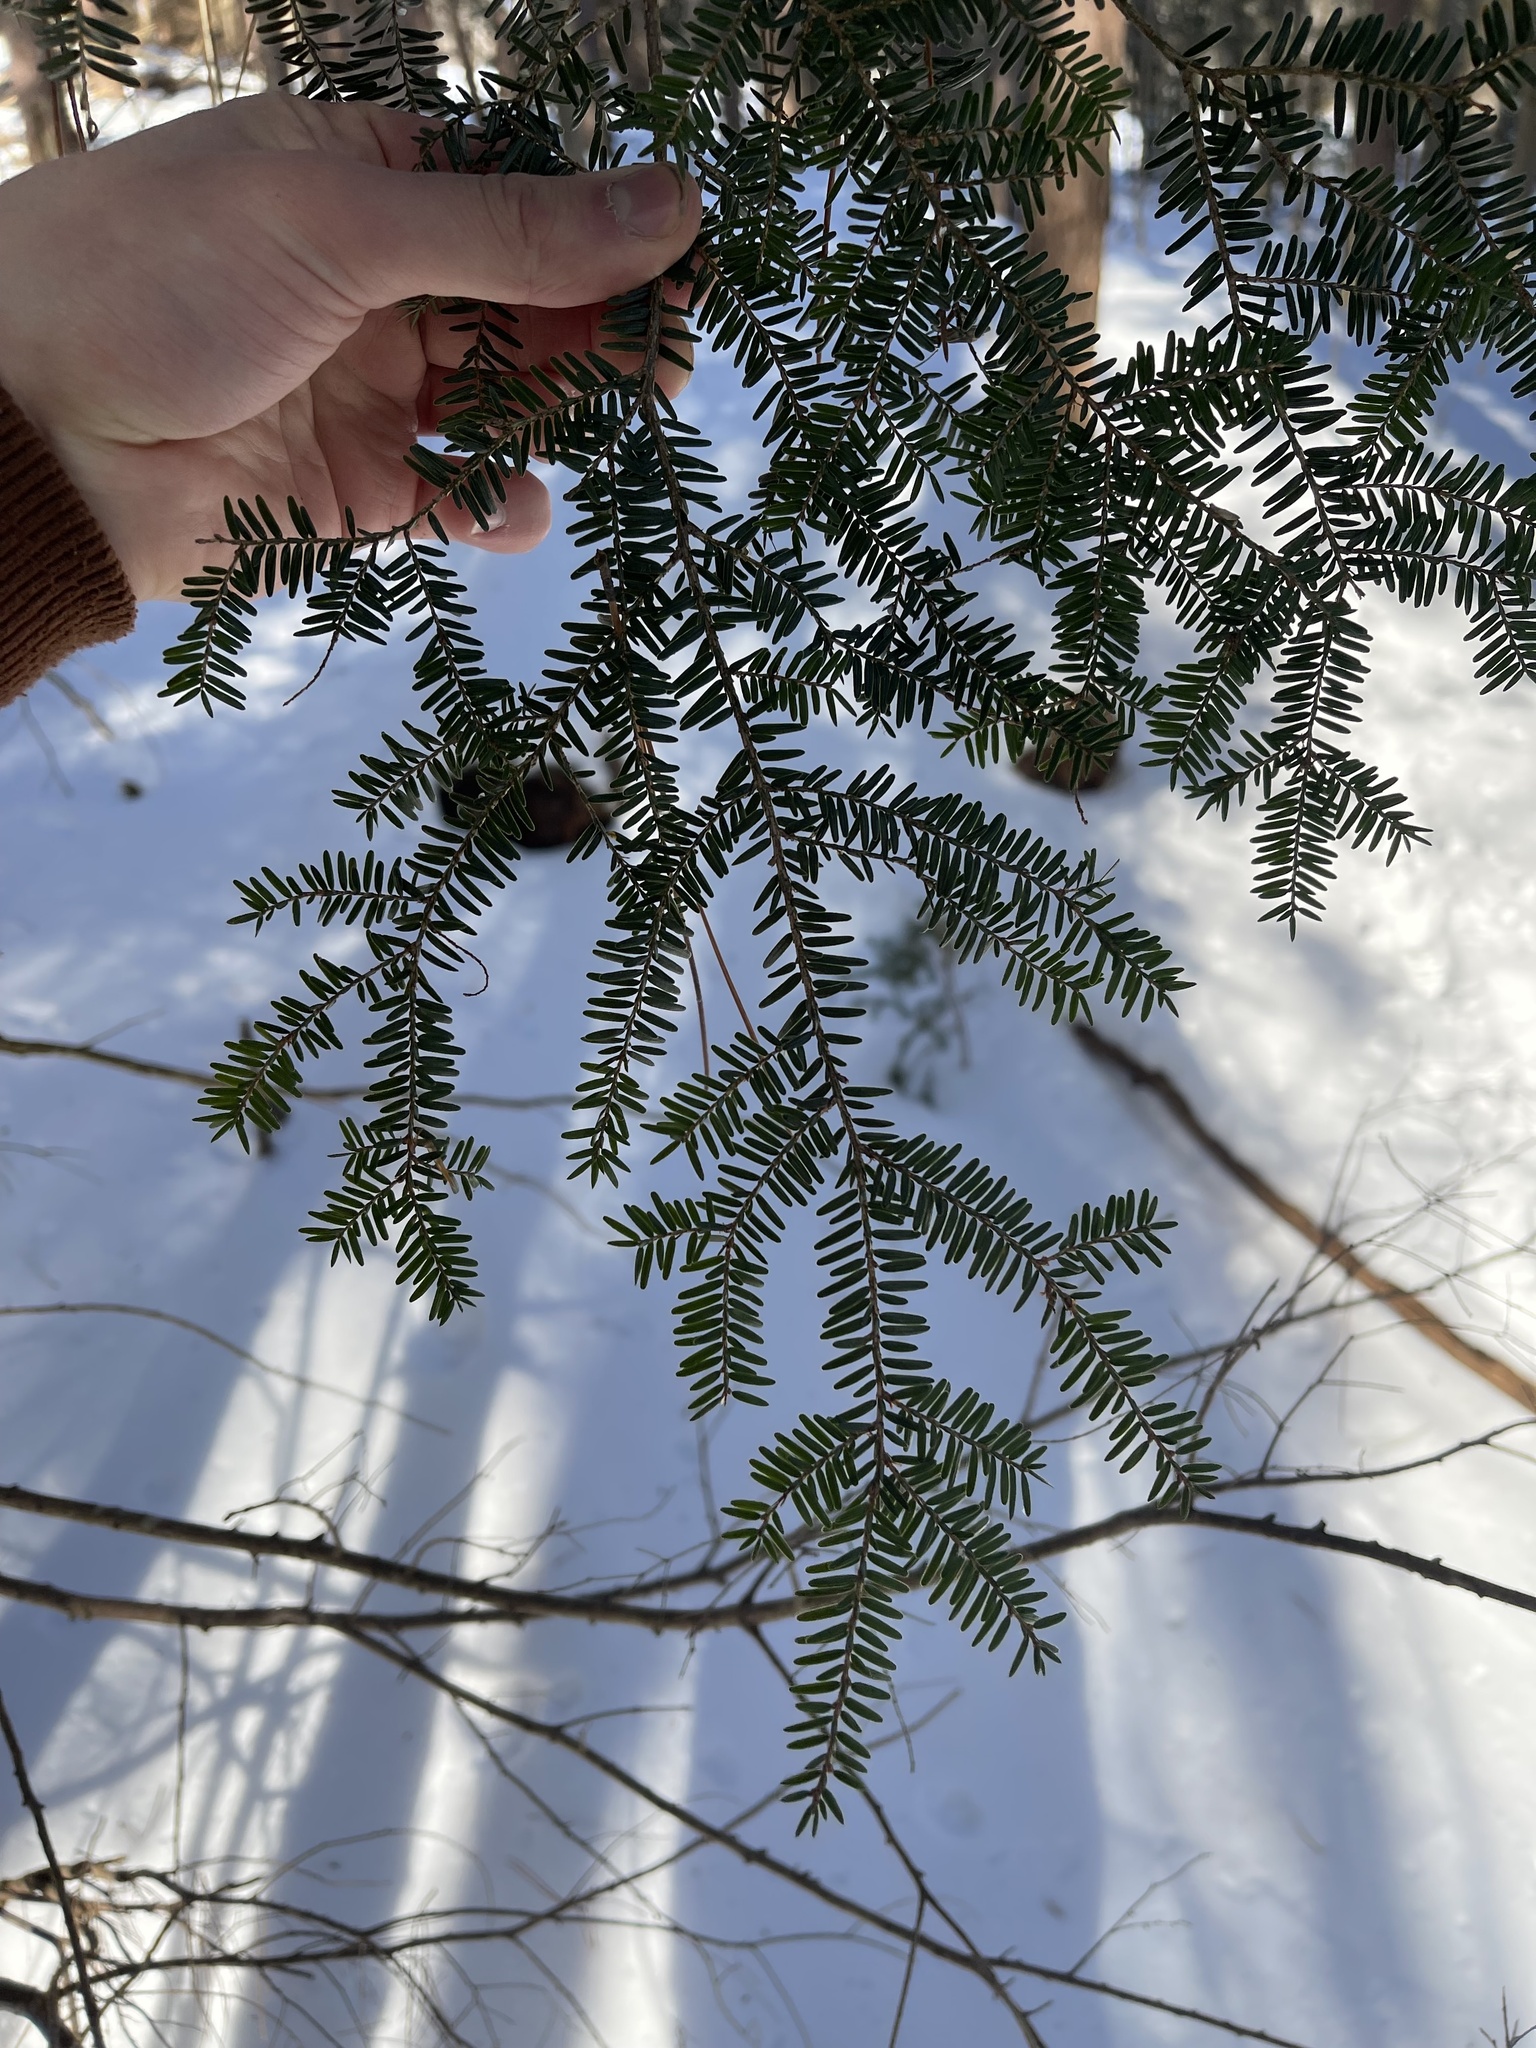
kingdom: Plantae
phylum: Tracheophyta
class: Pinopsida
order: Pinales
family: Pinaceae
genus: Tsuga
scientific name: Tsuga canadensis
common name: Eastern hemlock
